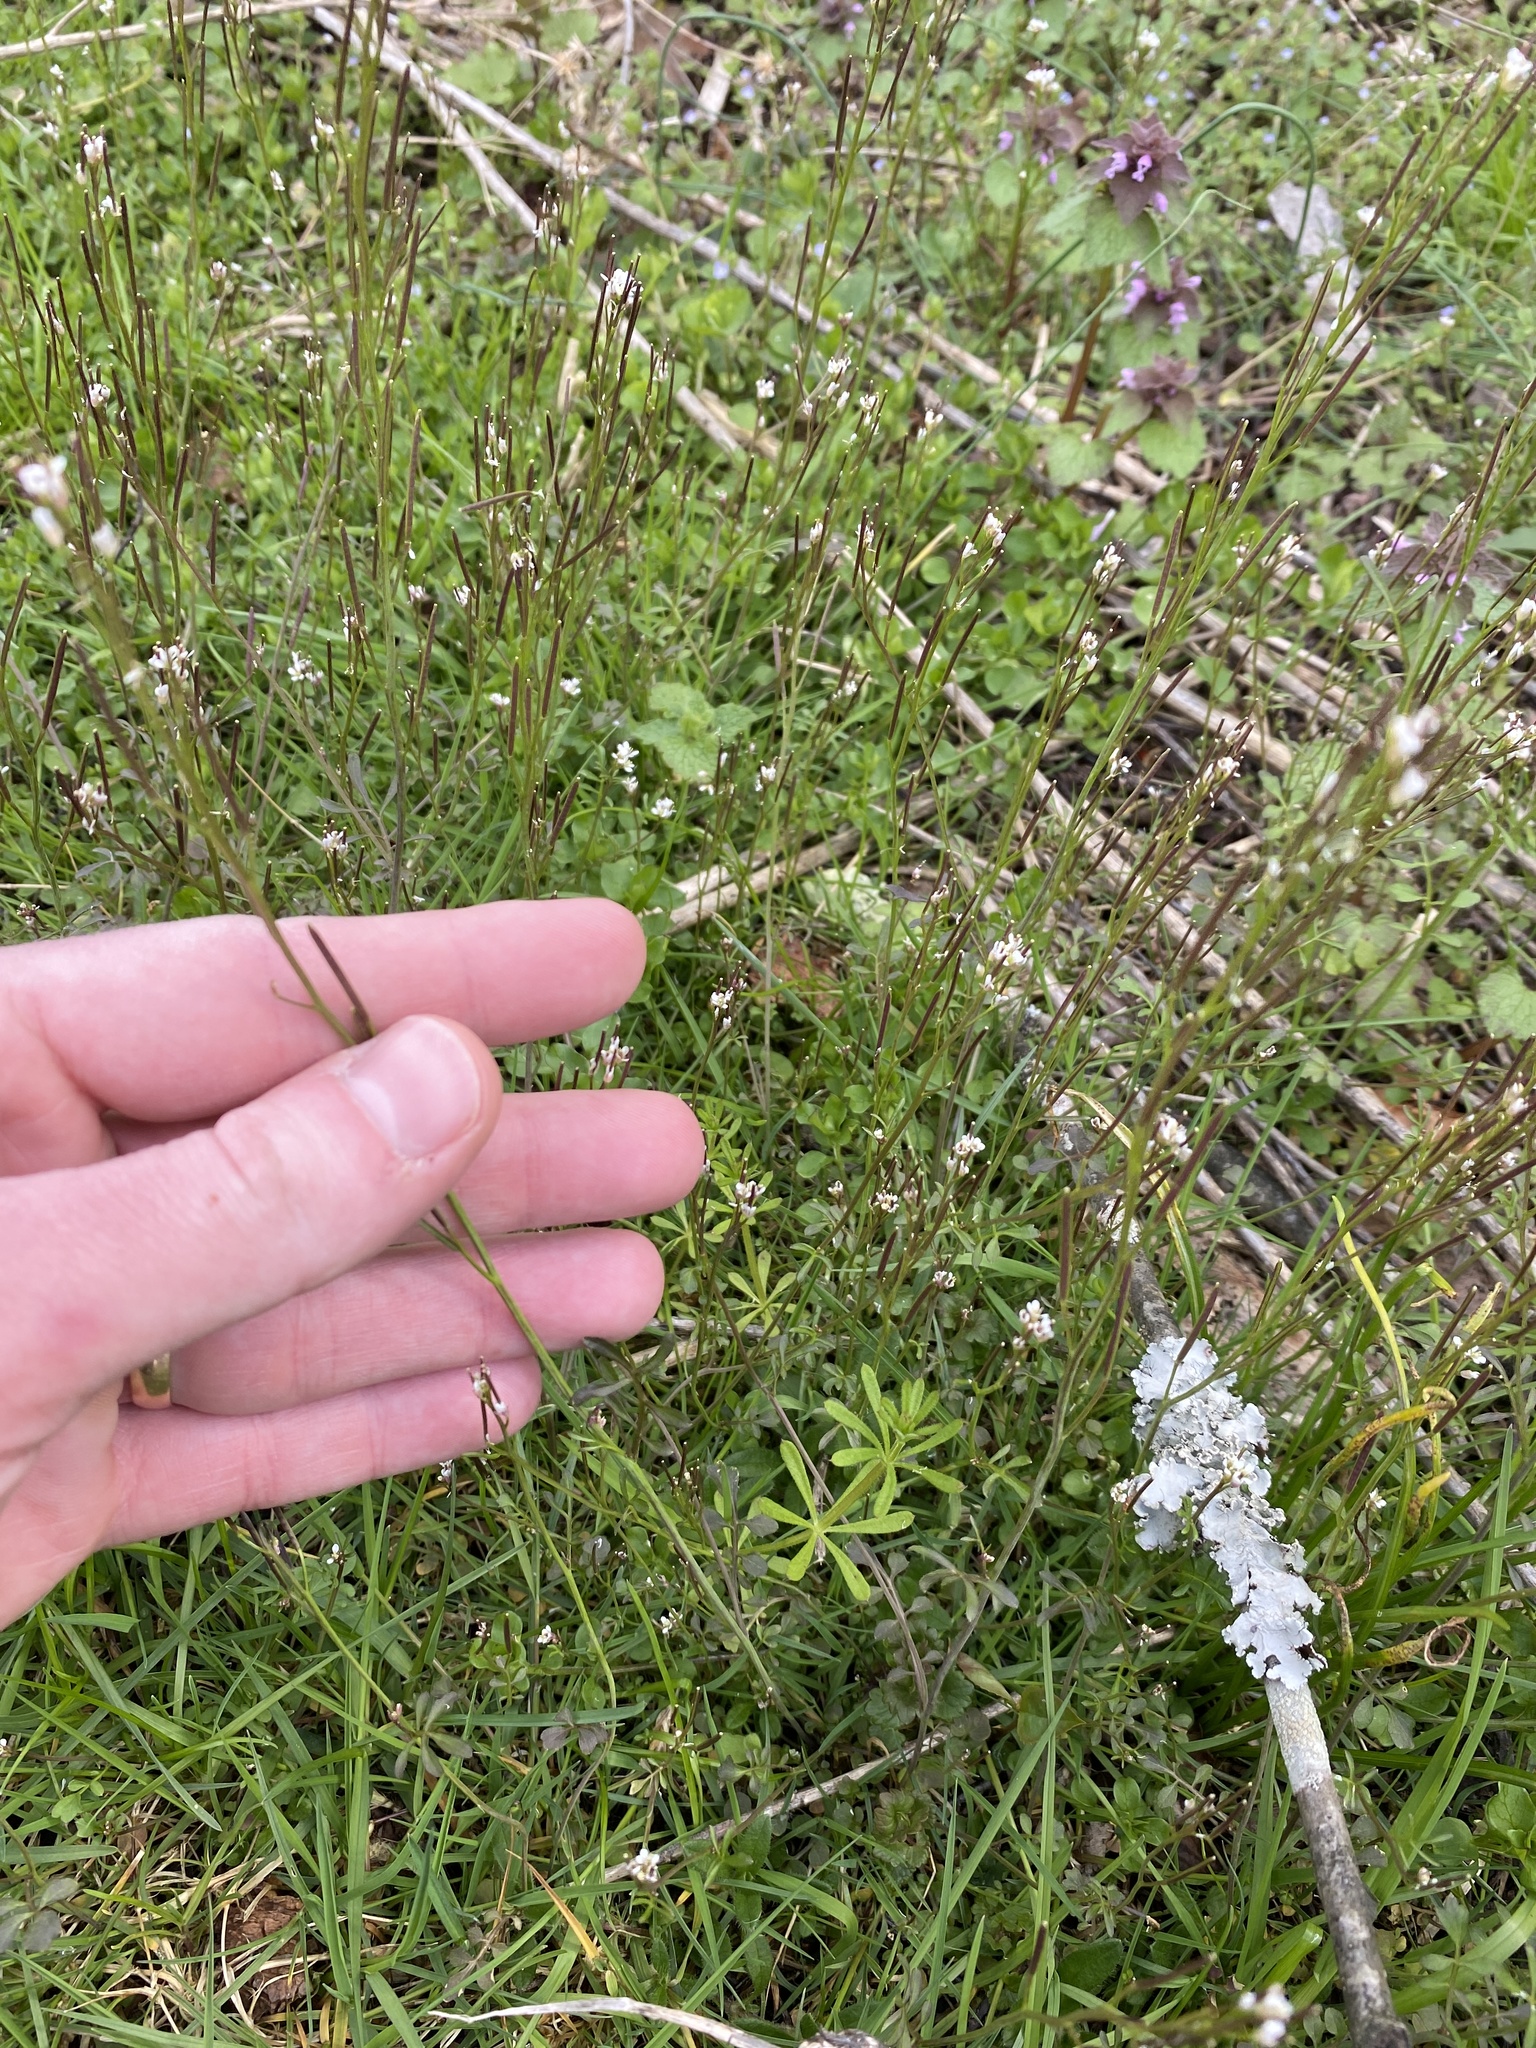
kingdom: Plantae
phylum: Tracheophyta
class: Magnoliopsida
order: Brassicales
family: Brassicaceae
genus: Cardamine
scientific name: Cardamine hirsuta
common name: Hairy bittercress
